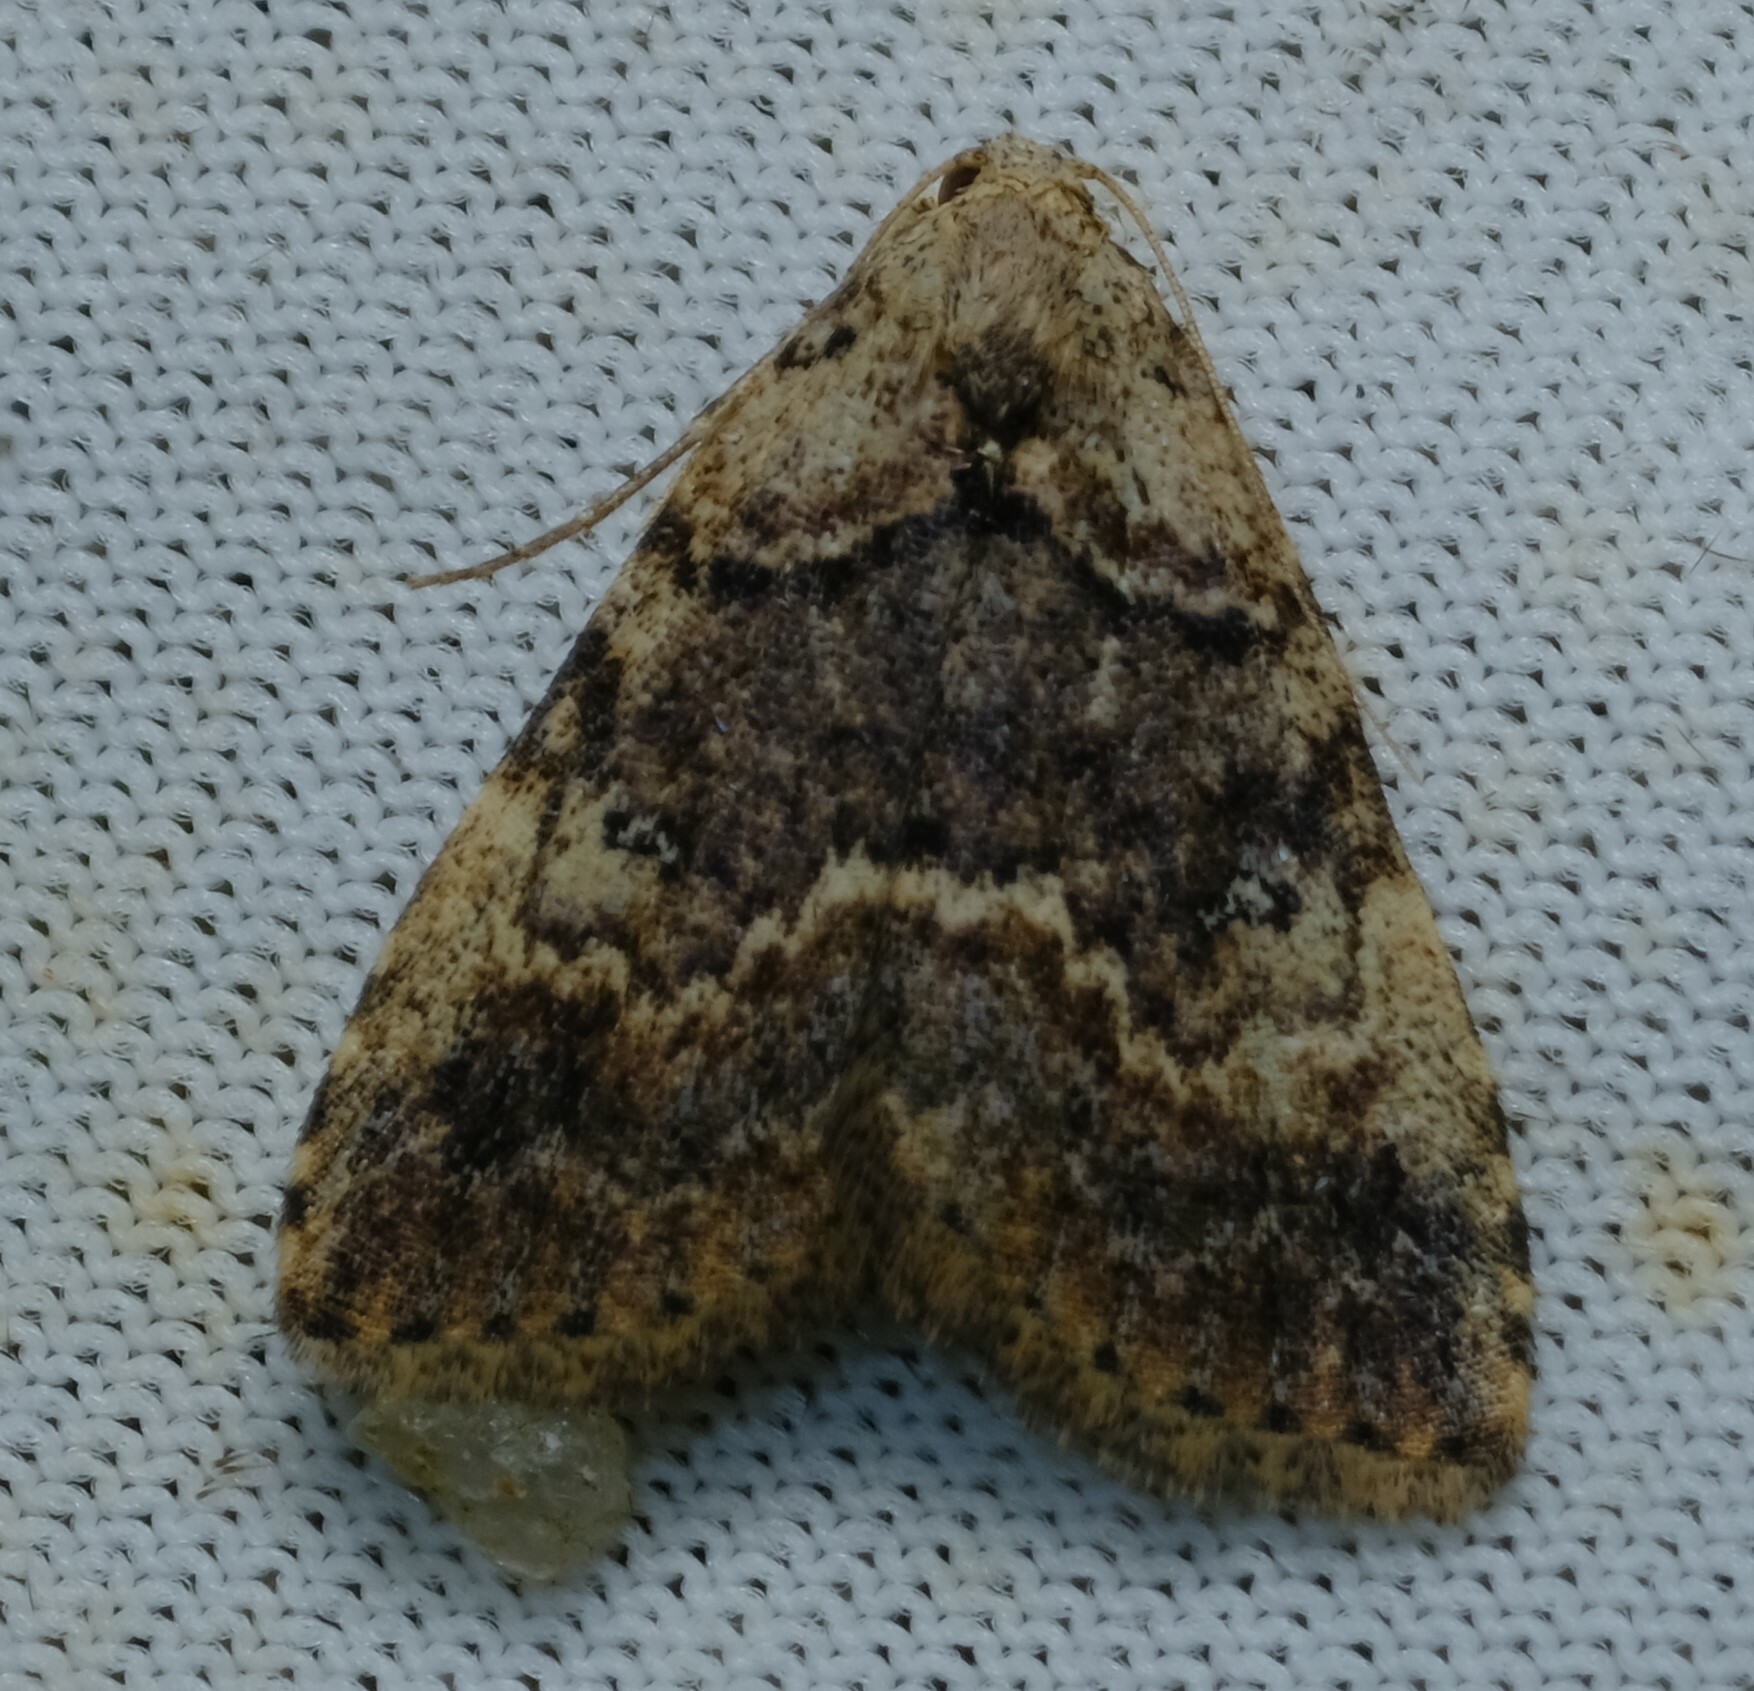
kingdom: Animalia
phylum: Arthropoda
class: Insecta
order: Lepidoptera
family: Erebidae
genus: Alapadna
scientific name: Alapadna pauropis
